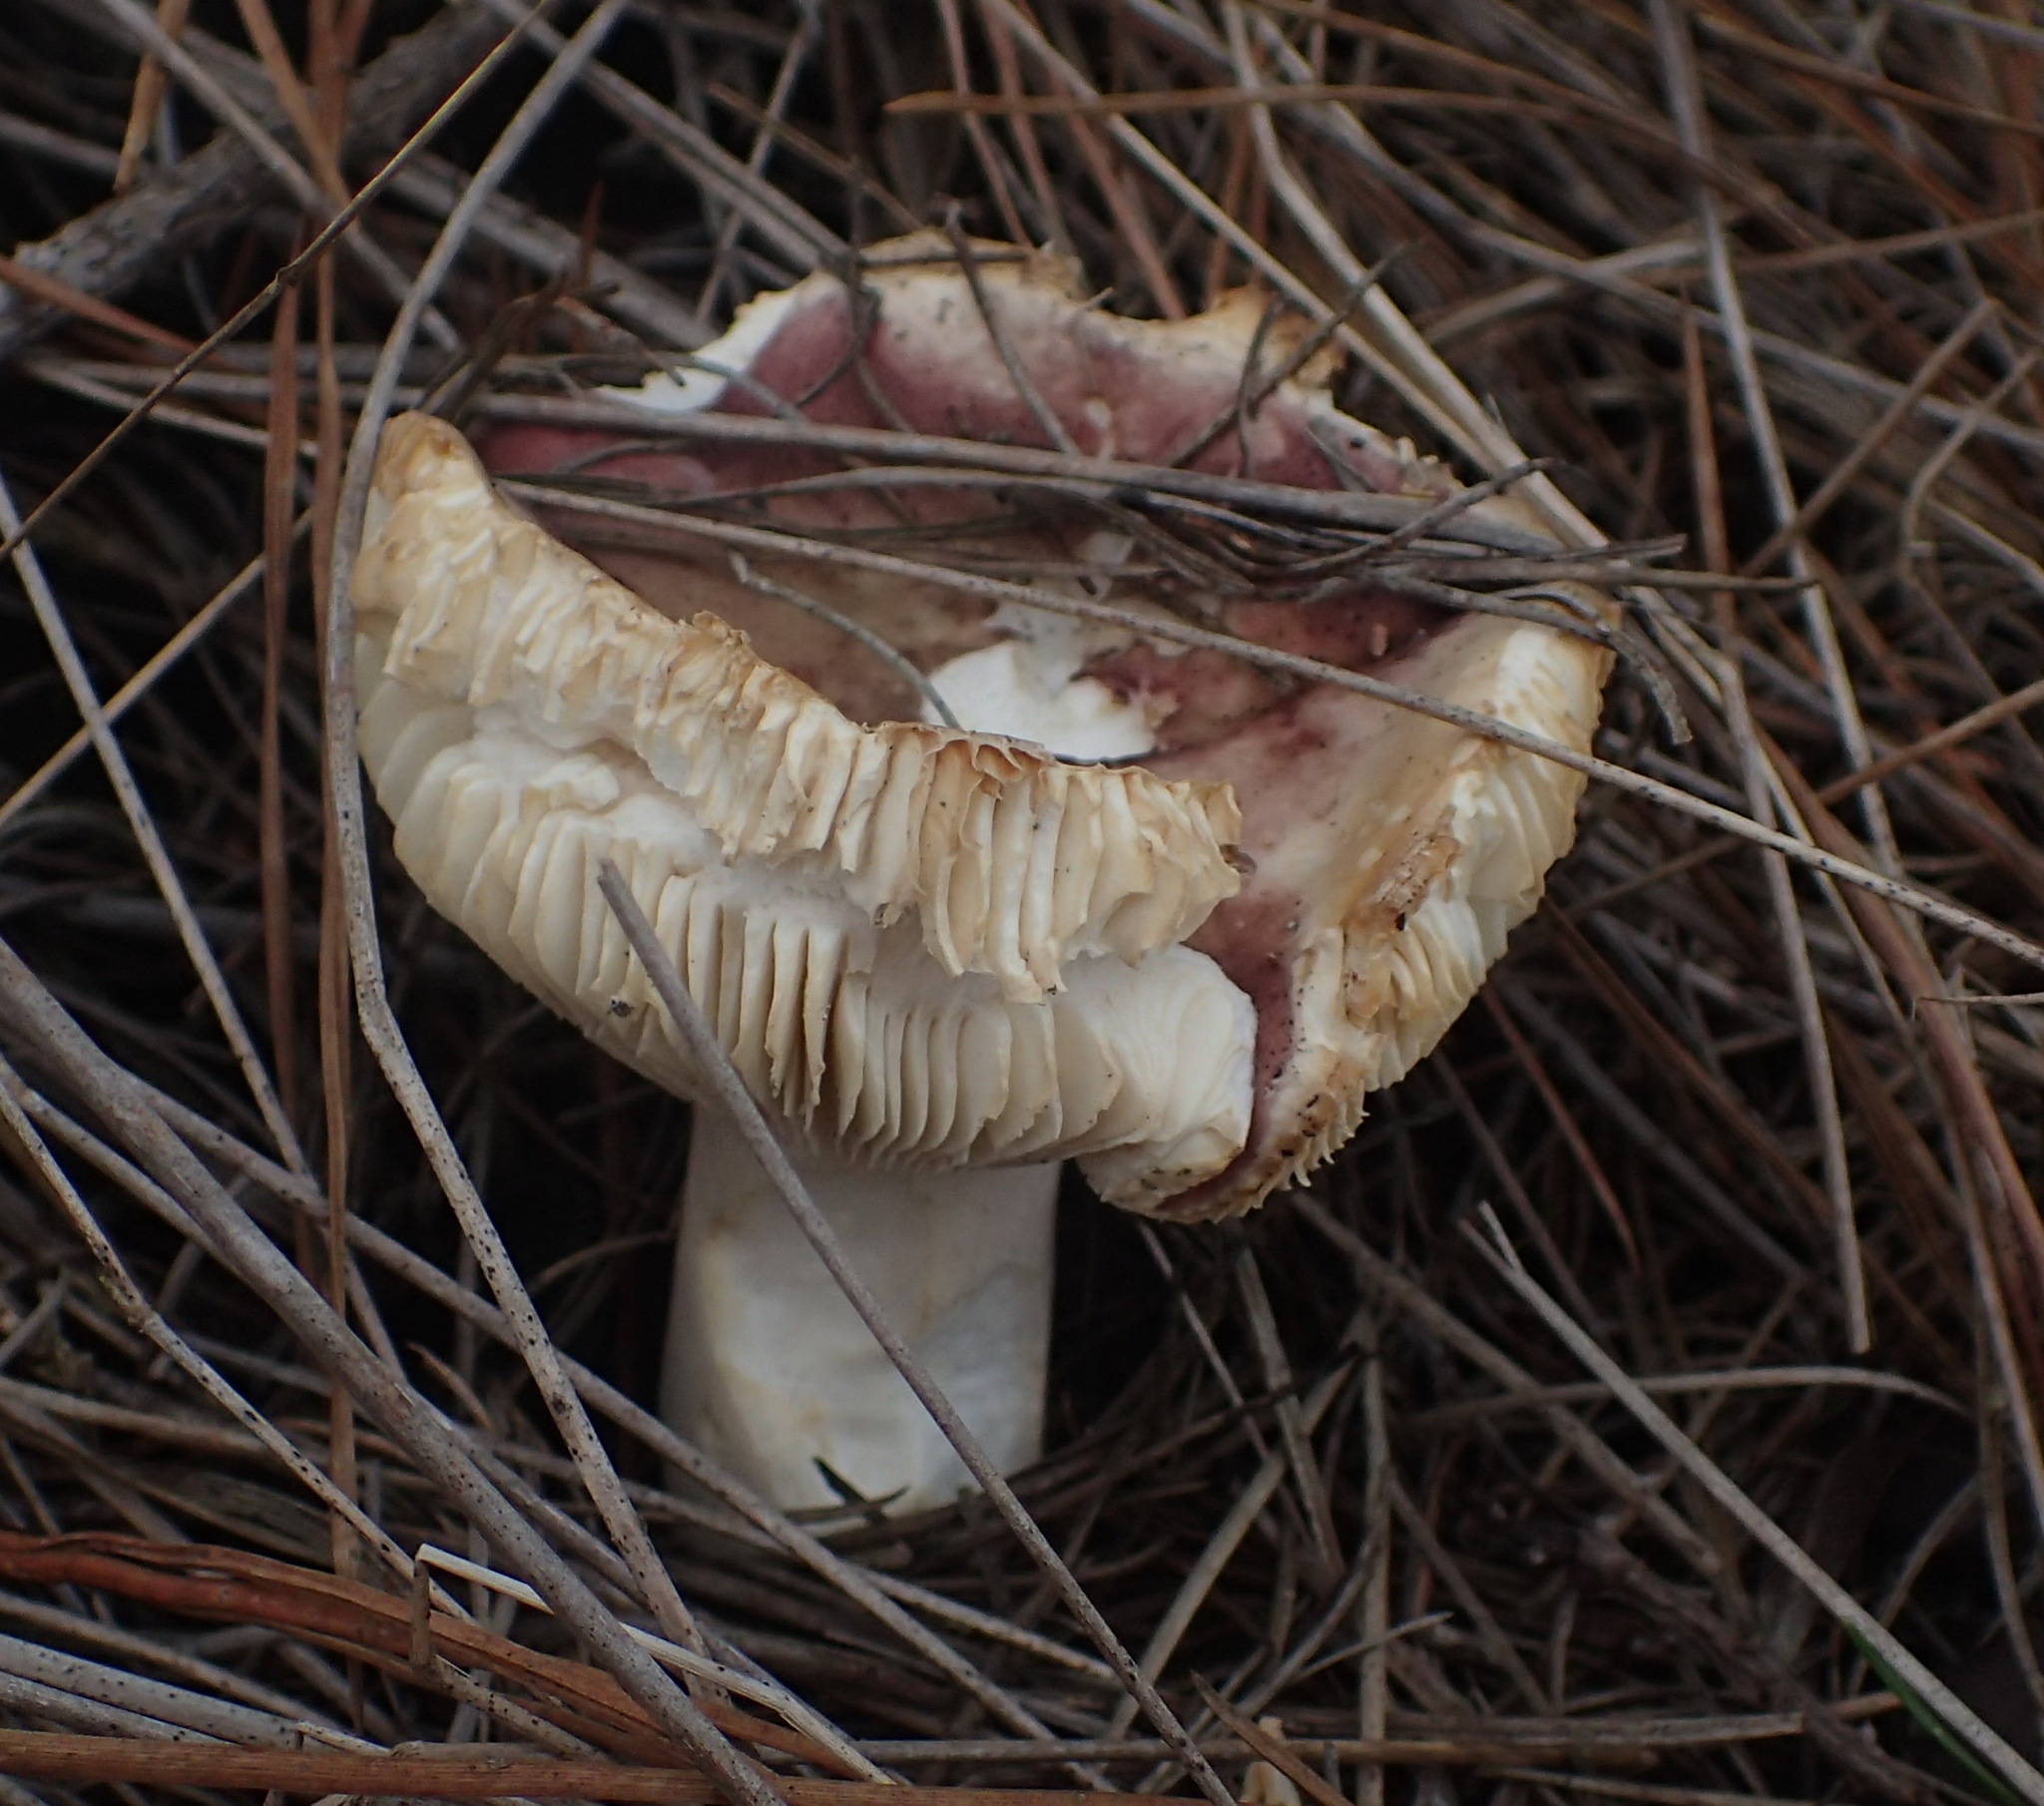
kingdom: Fungi
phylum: Basidiomycota
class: Agaricomycetes
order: Russulales
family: Russulaceae
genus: Russula
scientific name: Russula sardonia
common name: Primrose brittlegill
